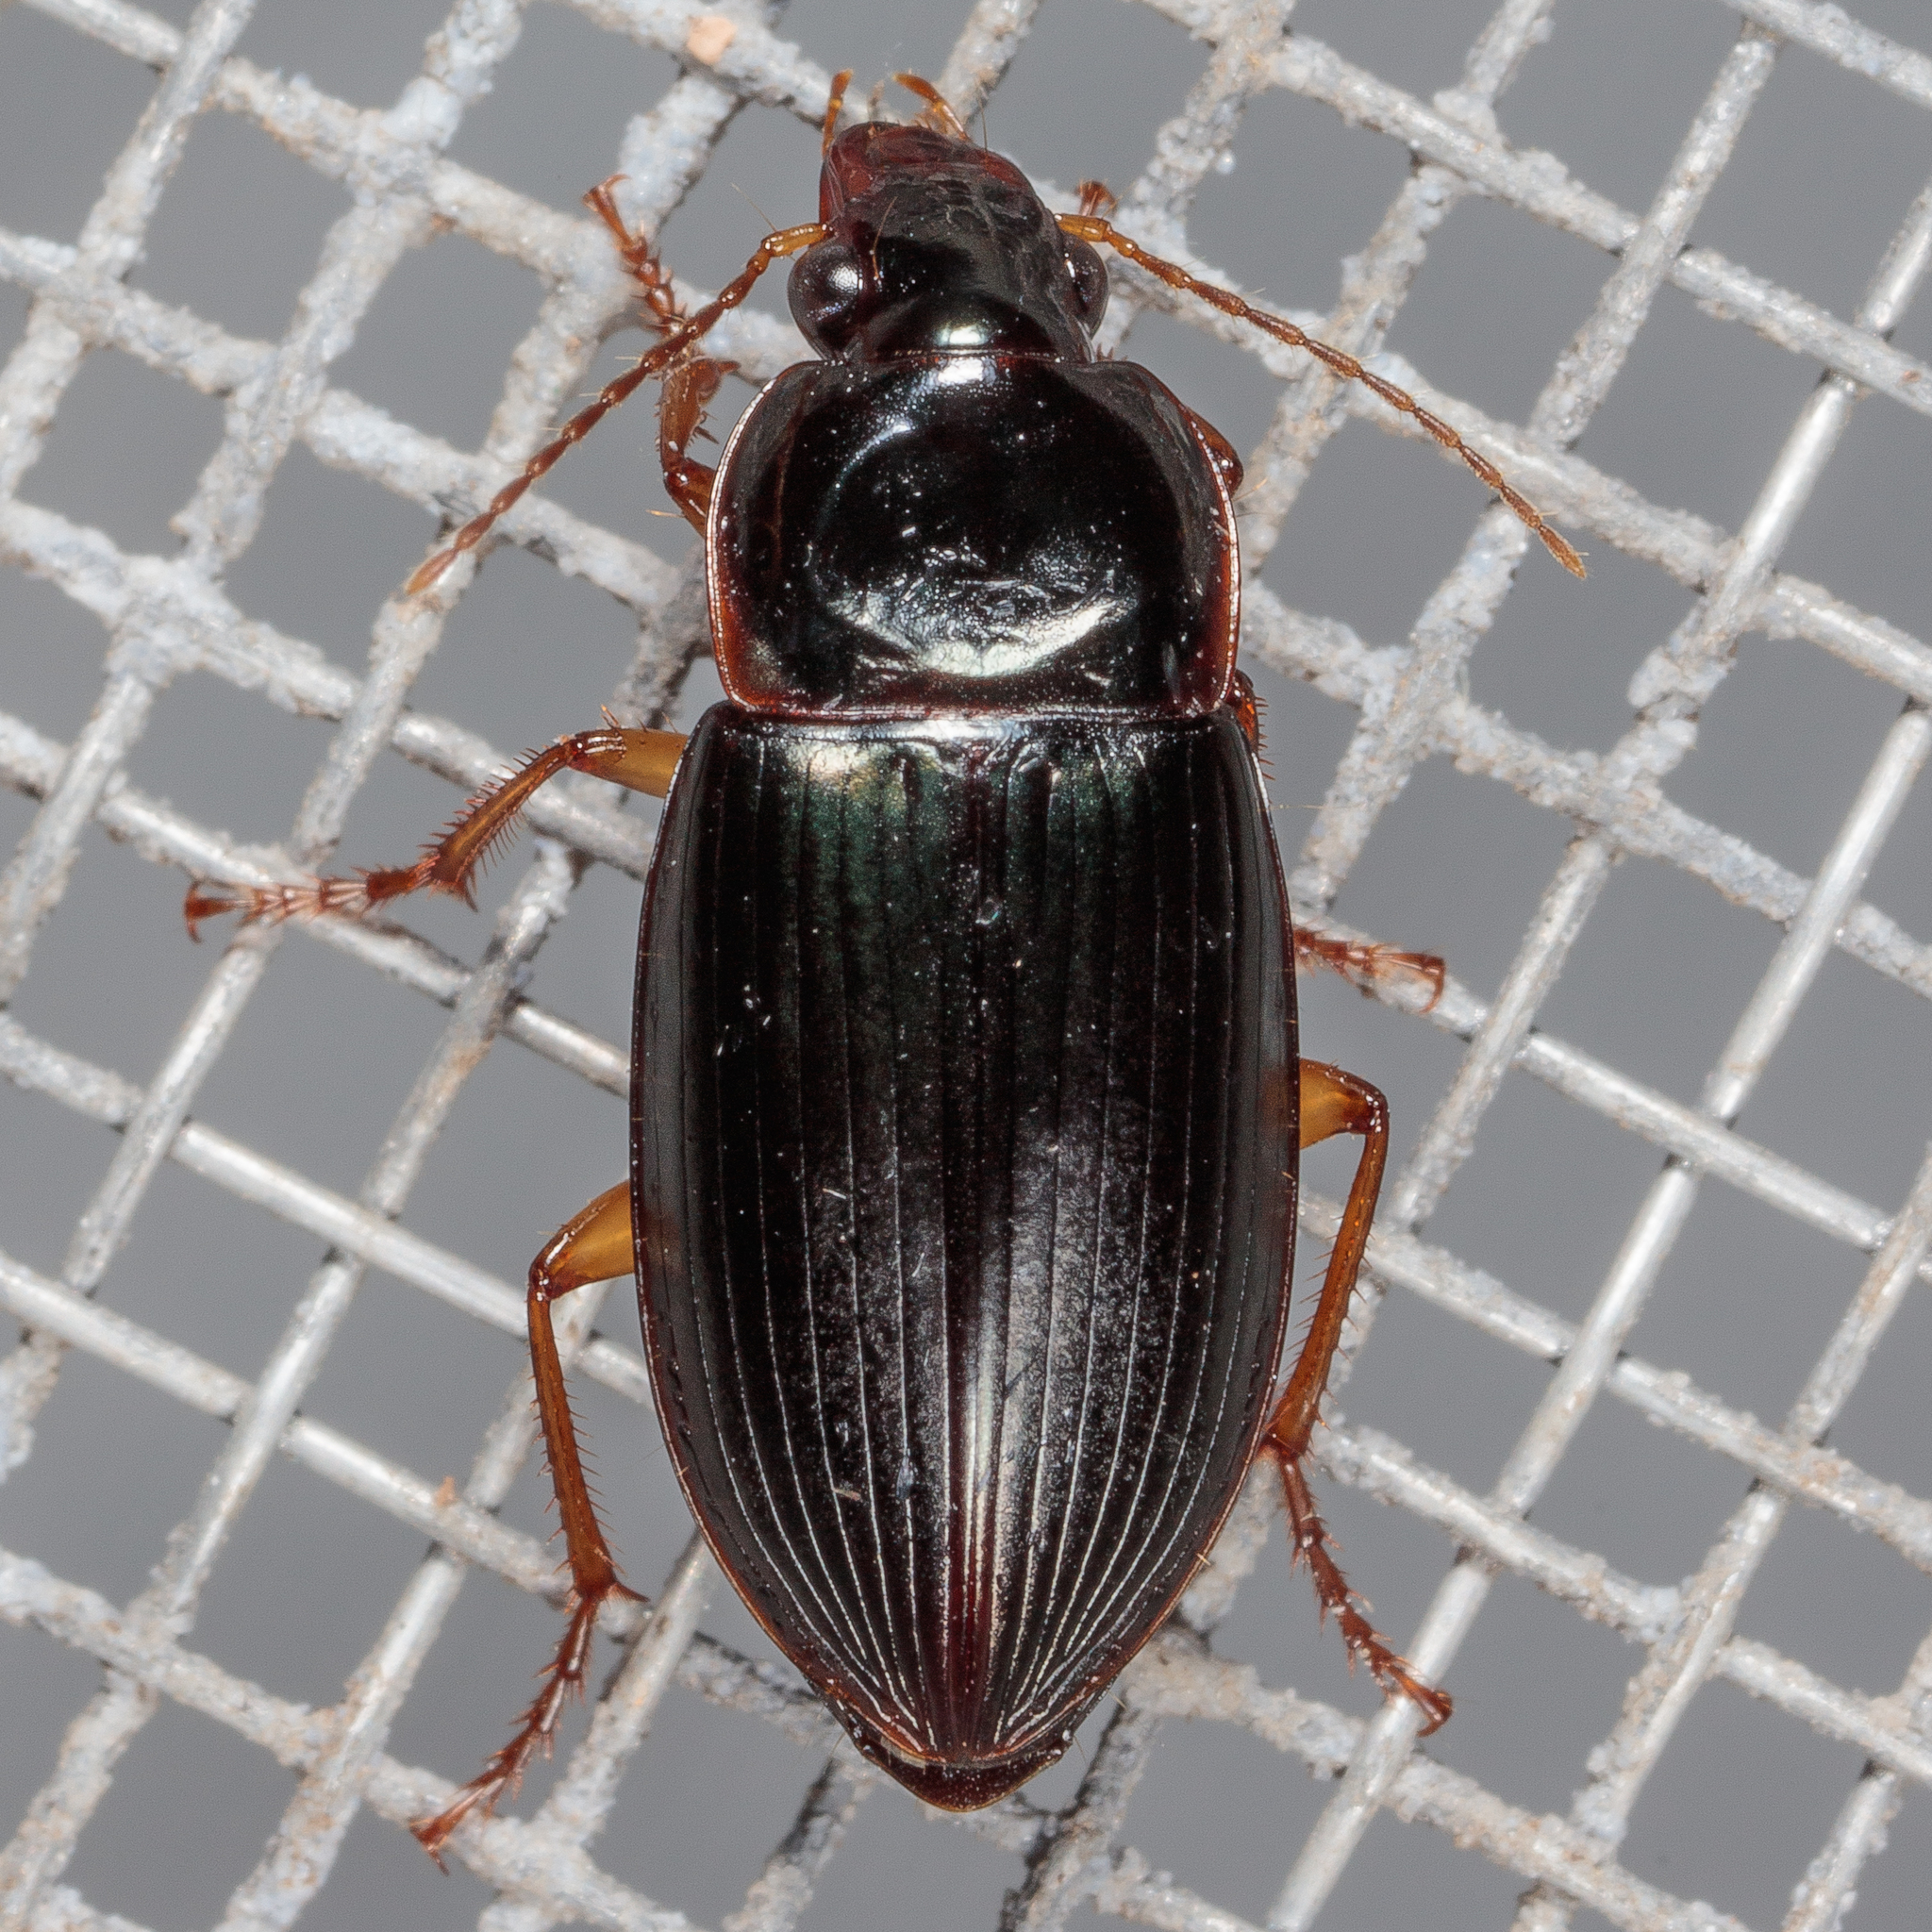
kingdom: Animalia
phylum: Arthropoda
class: Insecta
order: Coleoptera
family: Carabidae
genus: Notiobia
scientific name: Notiobia terminata
